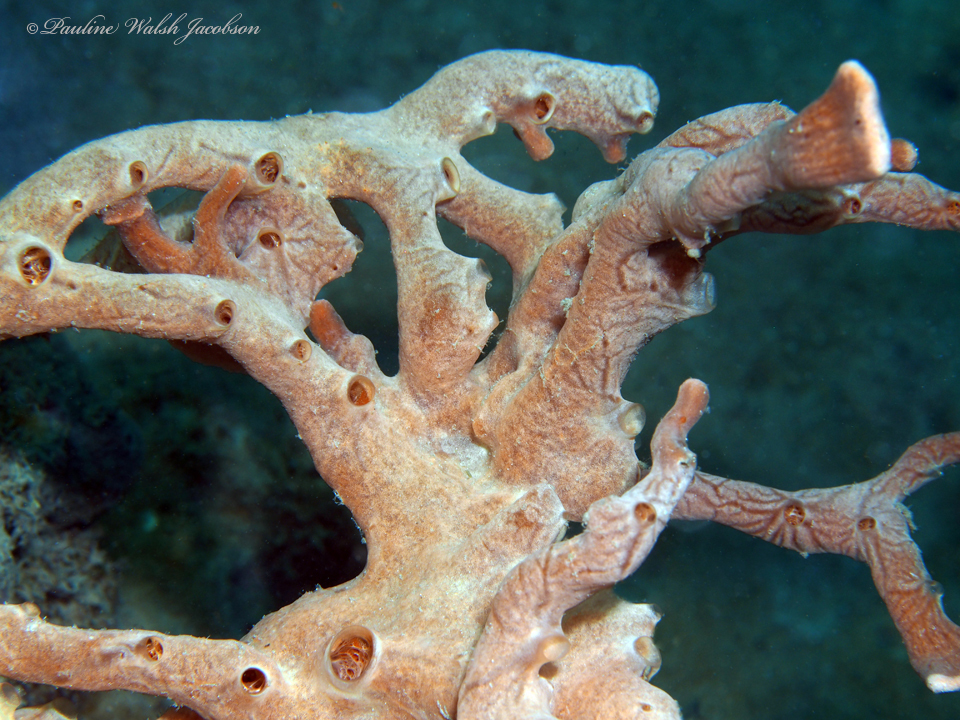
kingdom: Animalia
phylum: Porifera
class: Demospongiae
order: Poecilosclerida
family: Desmacididae
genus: Desmapsamma
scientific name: Desmapsamma anchorata
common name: Lumpy overgrowing sponge
